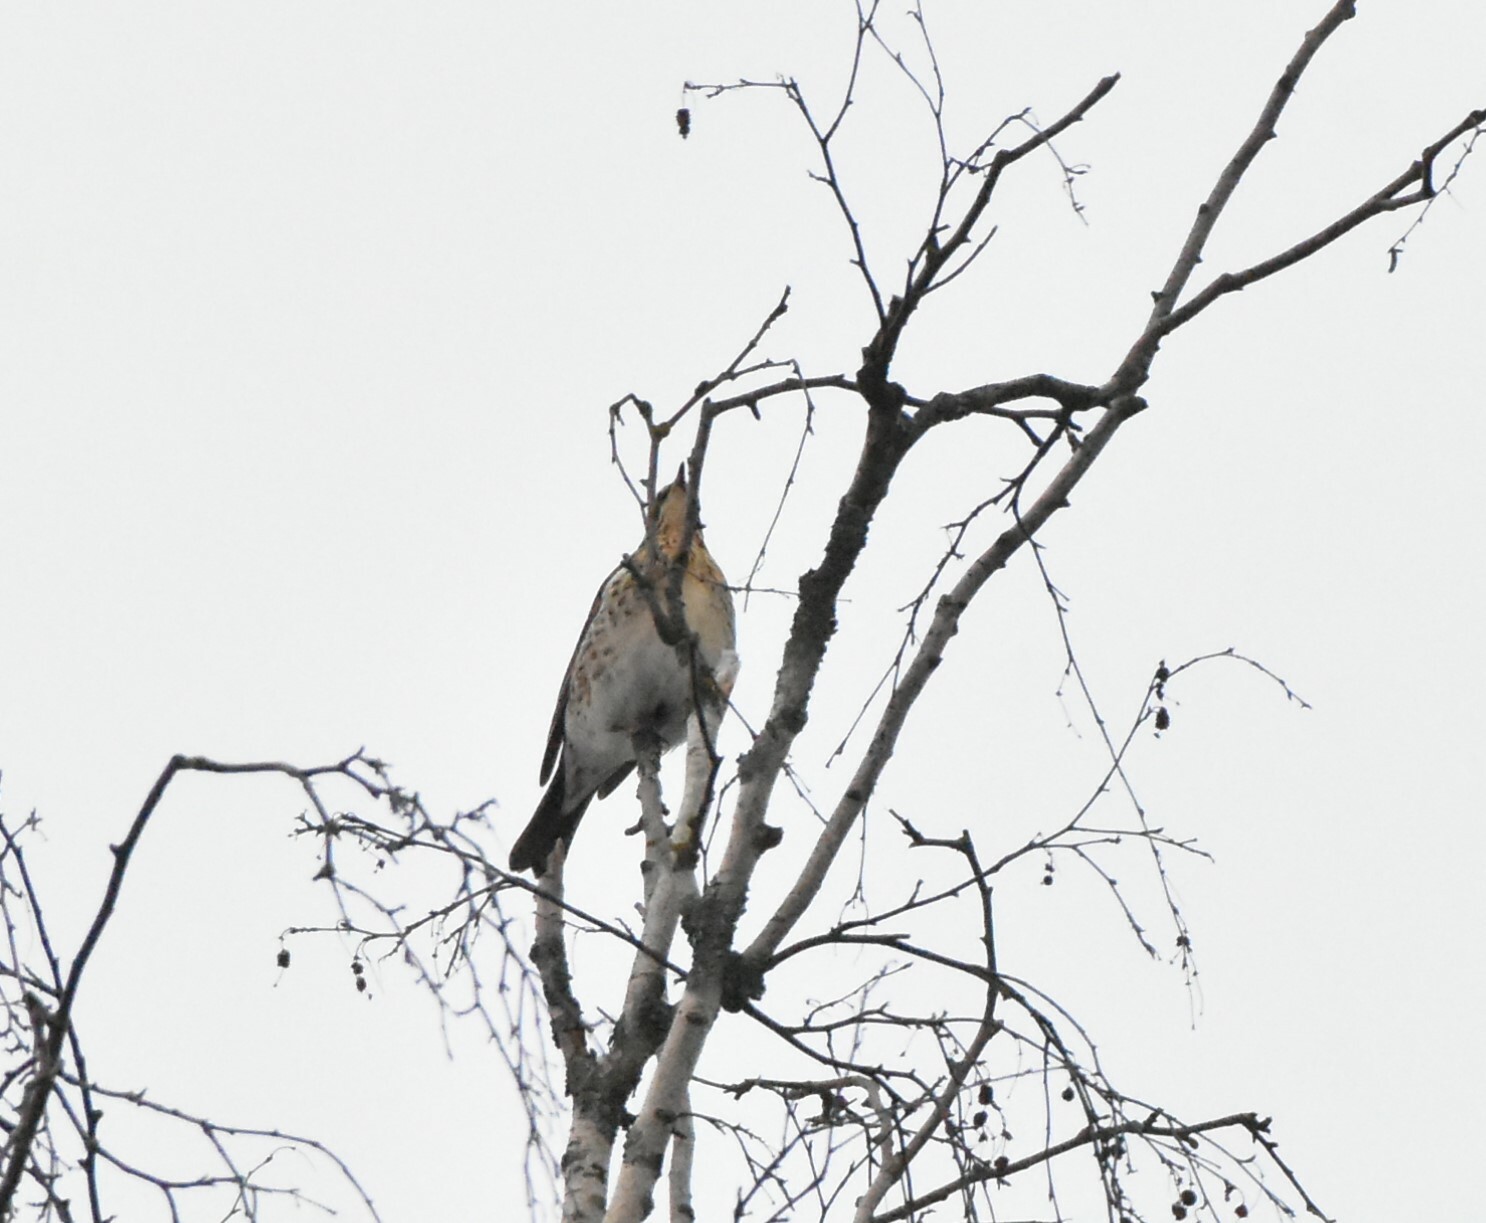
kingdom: Animalia
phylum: Chordata
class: Aves
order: Passeriformes
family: Turdidae
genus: Turdus
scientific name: Turdus pilaris
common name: Fieldfare
